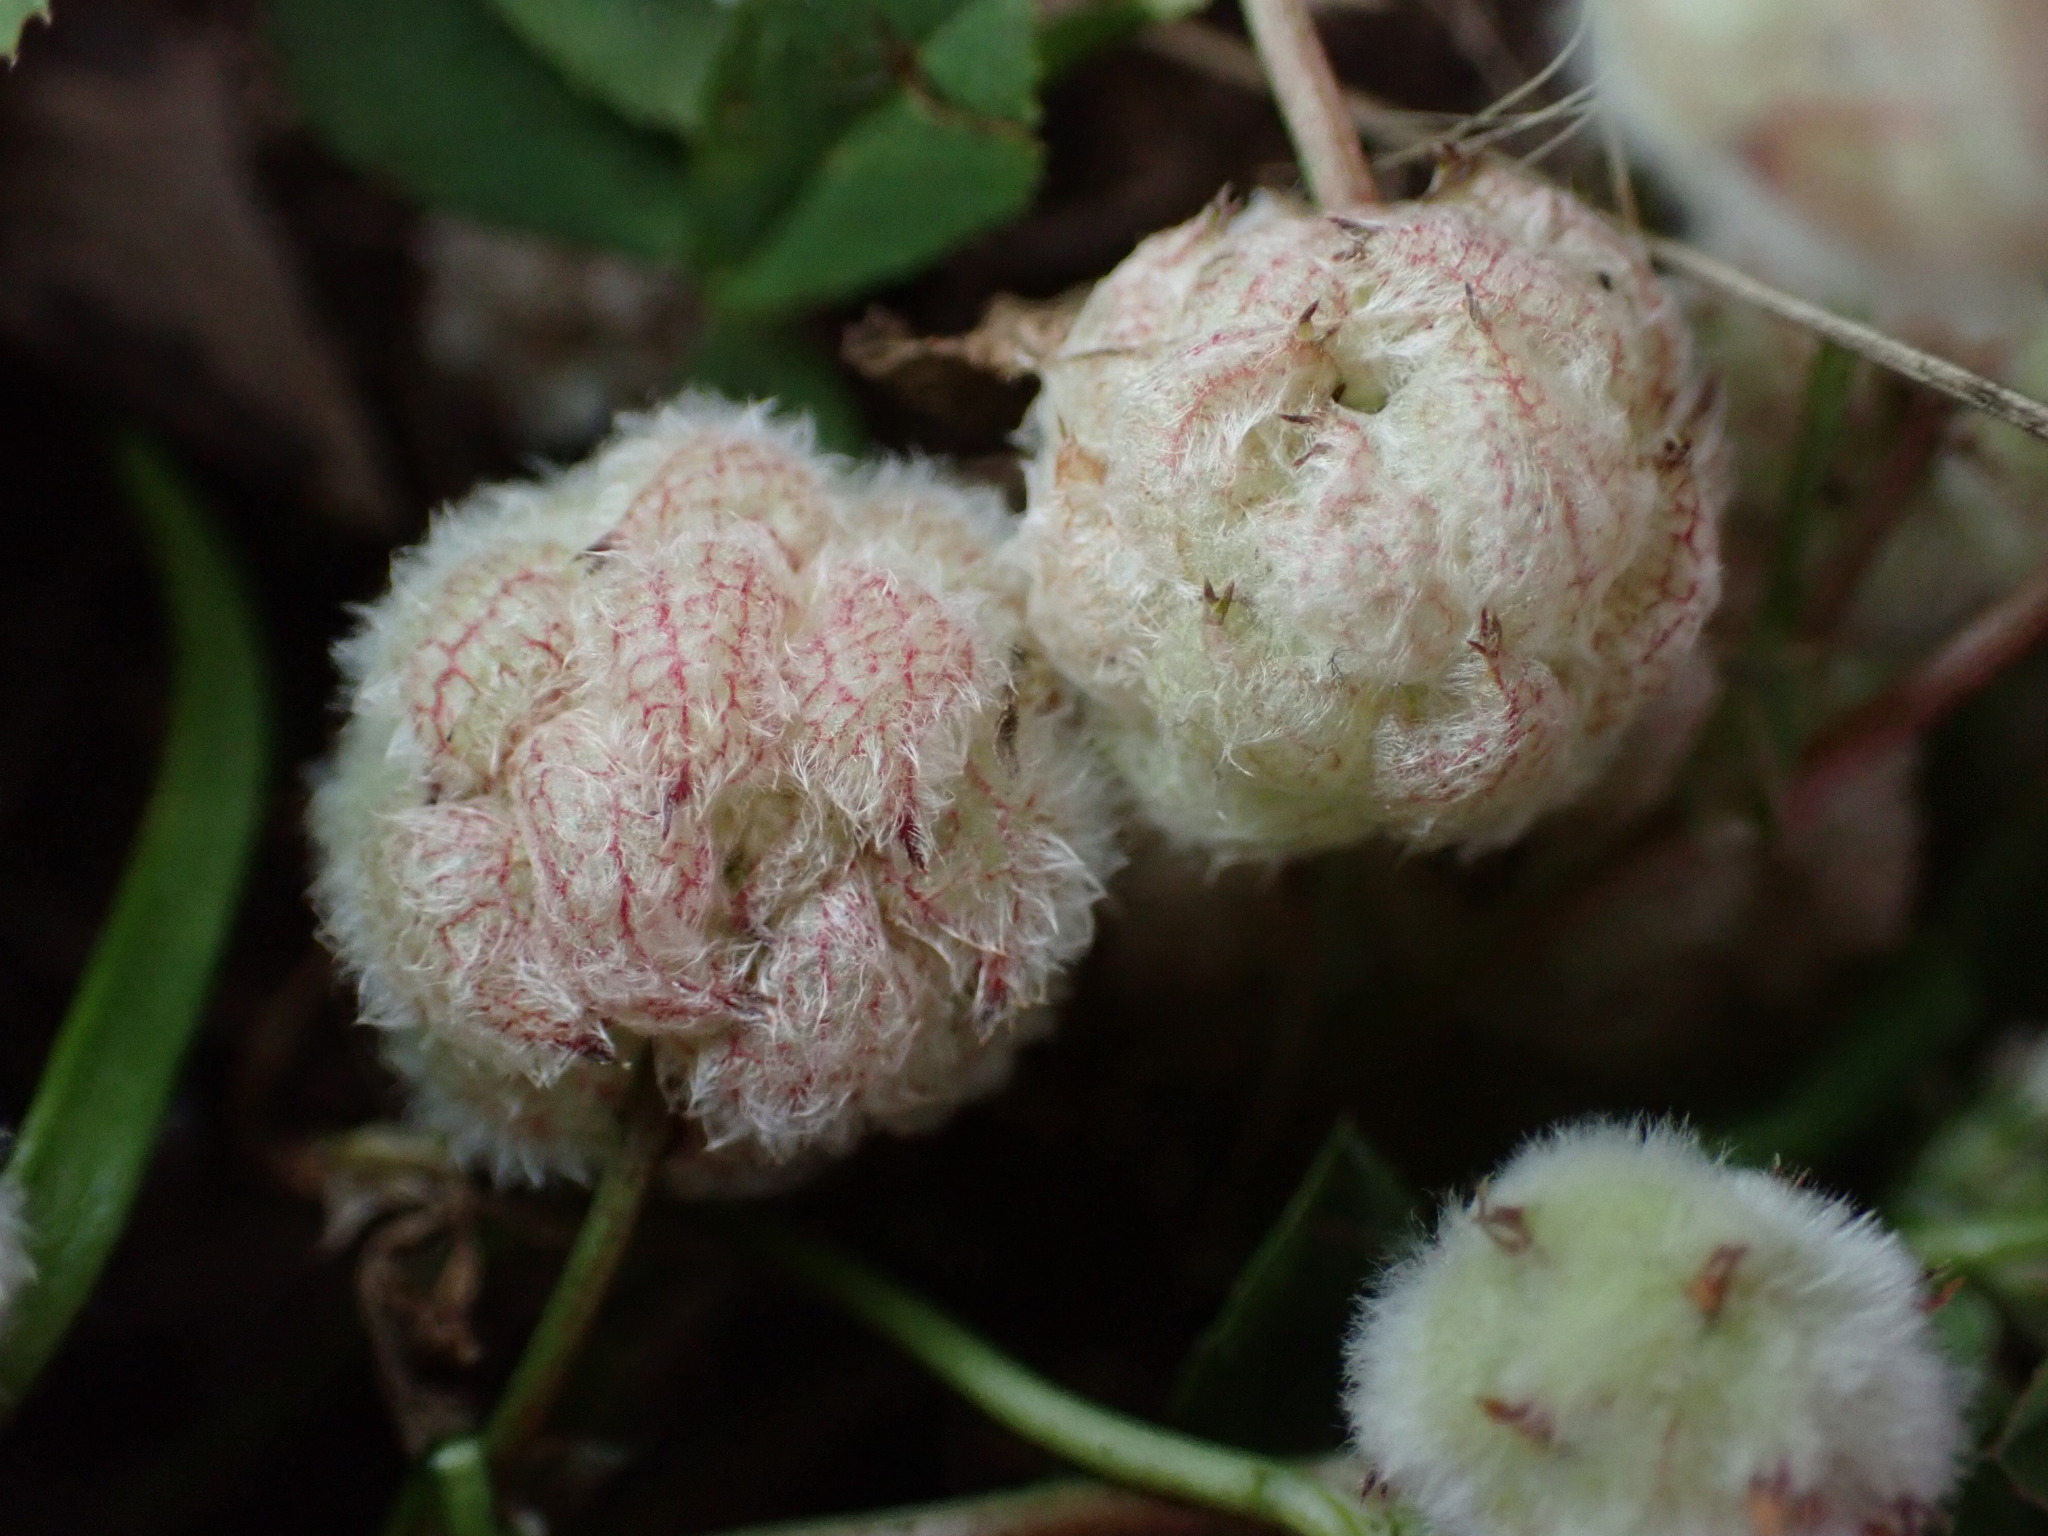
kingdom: Plantae
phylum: Tracheophyta
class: Magnoliopsida
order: Fabales
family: Fabaceae
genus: Trifolium
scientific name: Trifolium tomentosum
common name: Woolly clover
